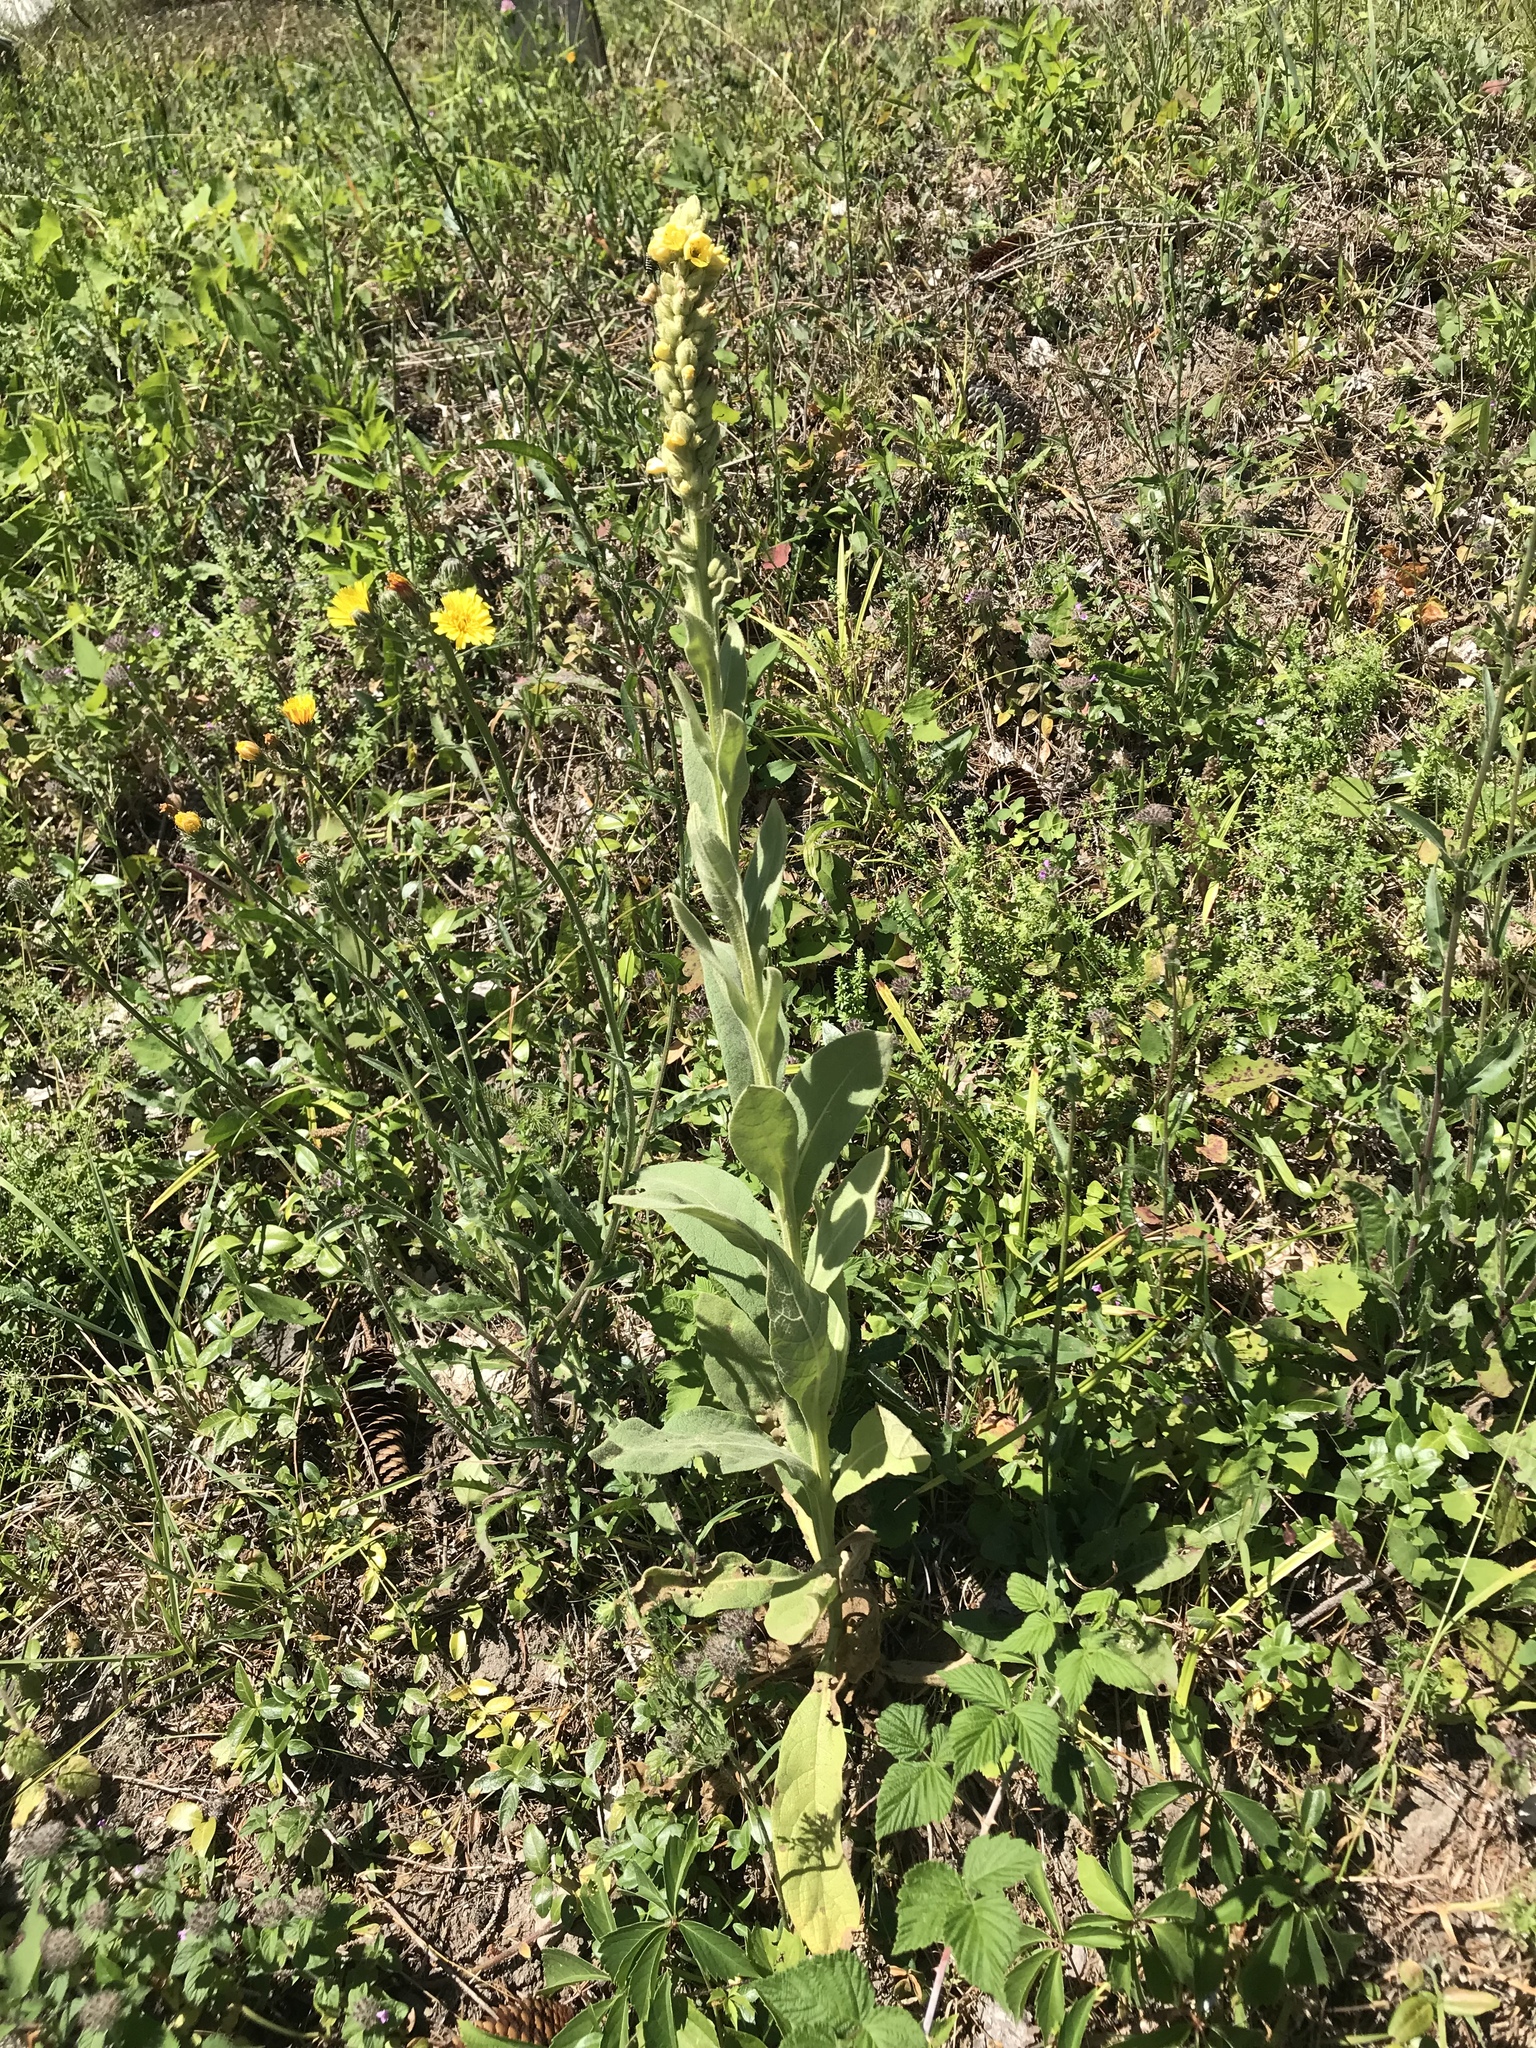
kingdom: Plantae
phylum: Tracheophyta
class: Magnoliopsida
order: Lamiales
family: Scrophulariaceae
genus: Verbascum
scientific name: Verbascum thapsus
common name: Common mullein
